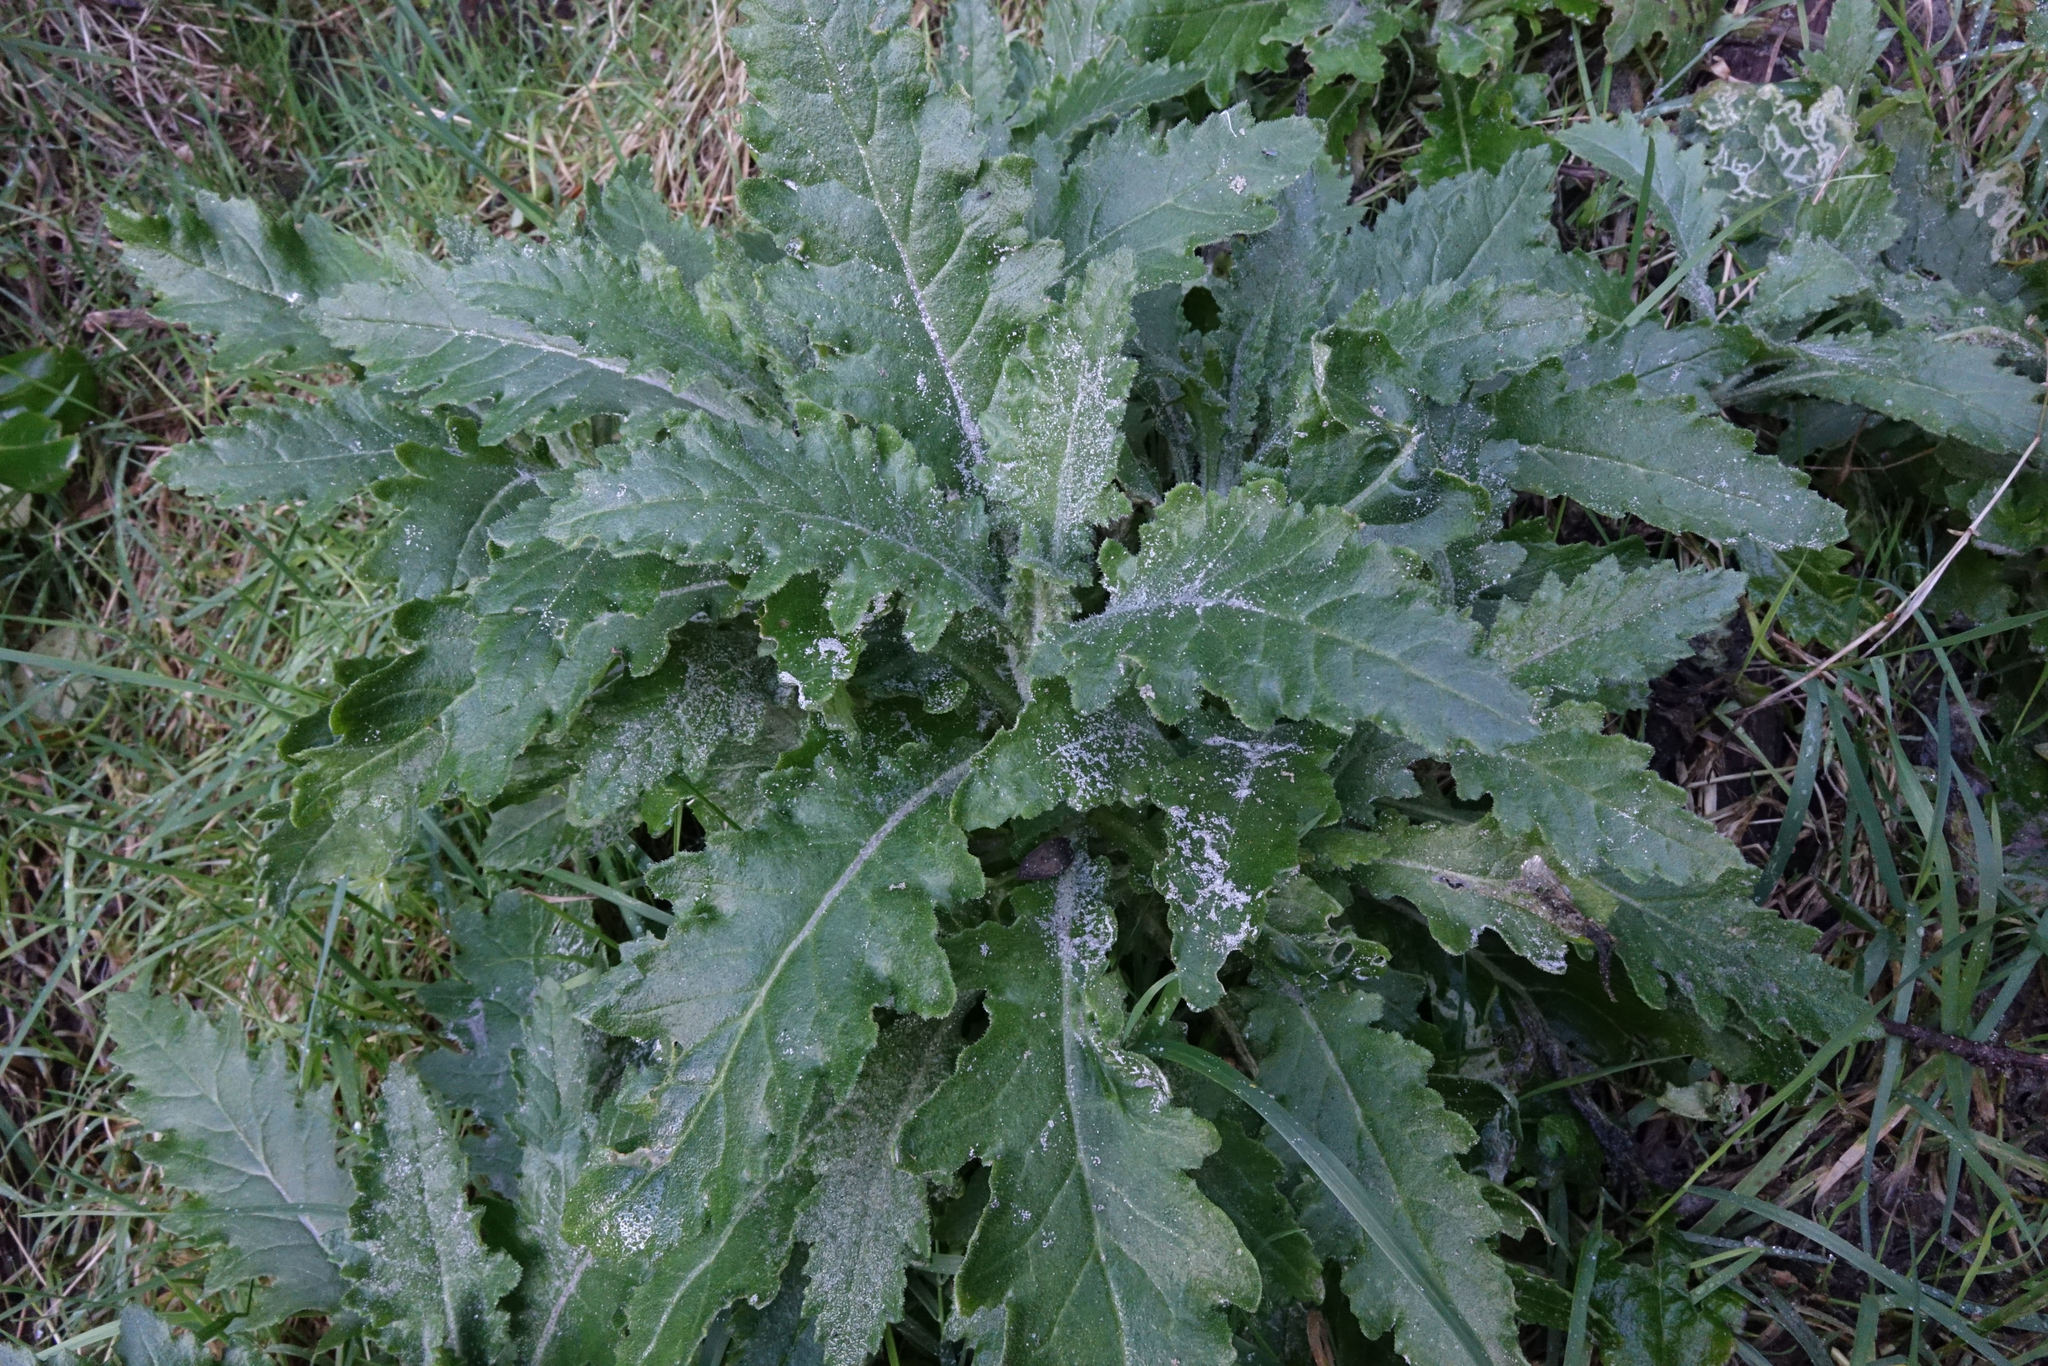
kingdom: Plantae
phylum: Tracheophyta
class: Magnoliopsida
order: Asterales
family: Asteraceae
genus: Senecio
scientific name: Senecio biserratus
